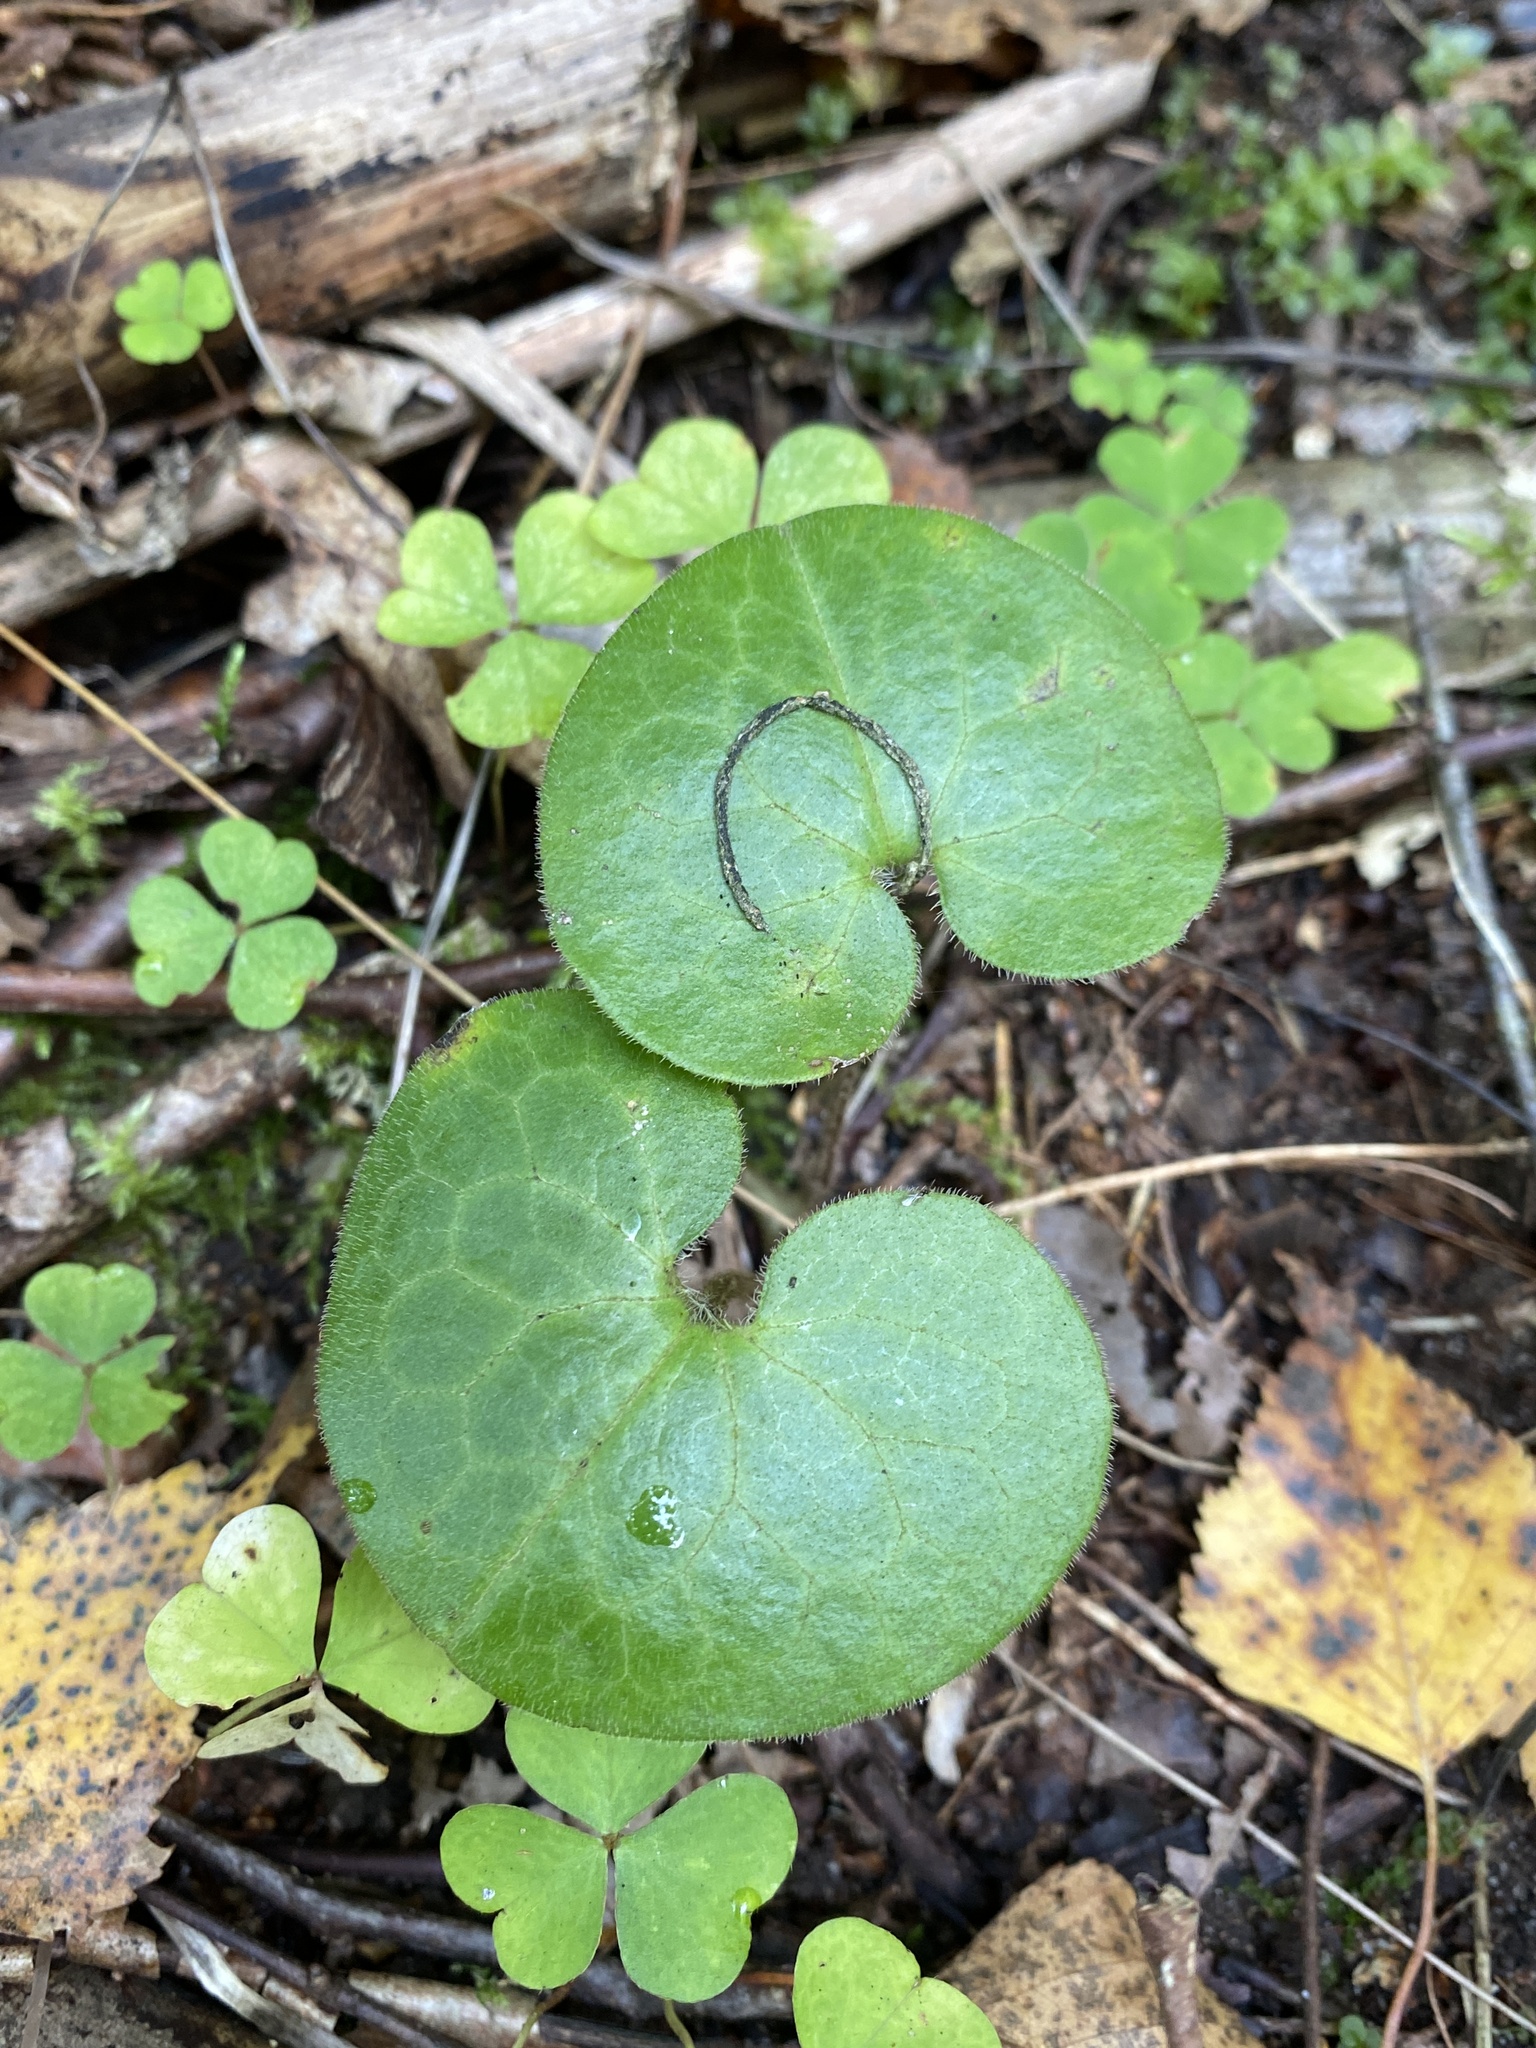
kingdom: Plantae
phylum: Tracheophyta
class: Magnoliopsida
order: Piperales
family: Aristolochiaceae
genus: Asarum
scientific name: Asarum europaeum
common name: Asarabacca
